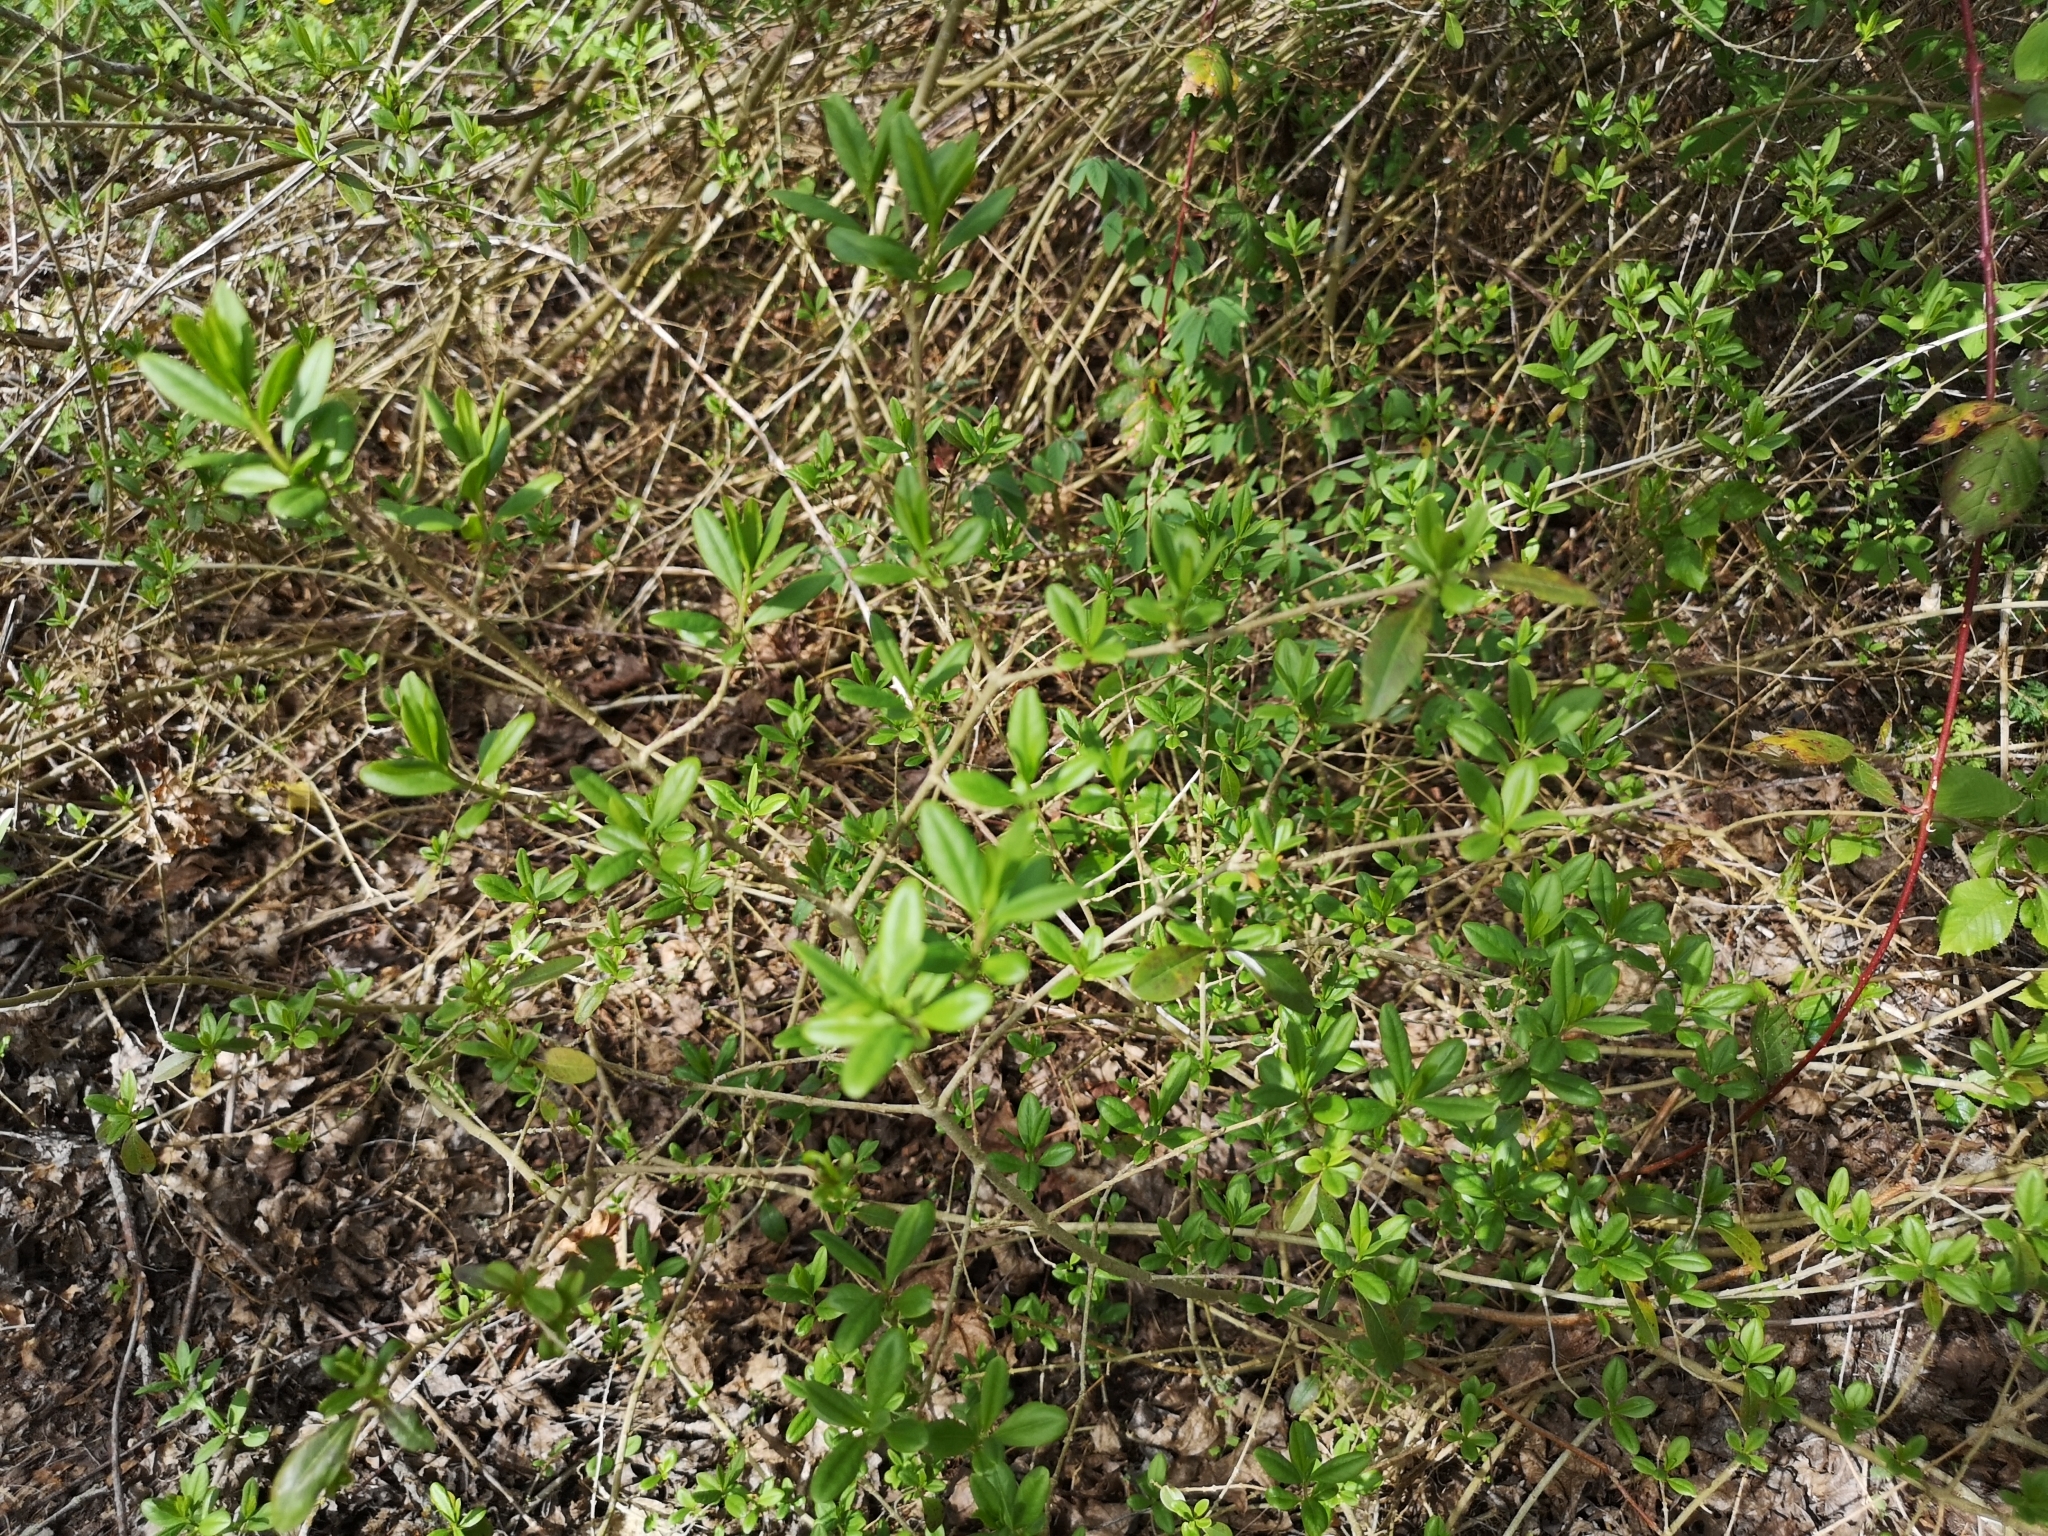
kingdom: Plantae
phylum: Tracheophyta
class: Magnoliopsida
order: Lamiales
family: Oleaceae
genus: Ligustrum
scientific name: Ligustrum vulgare
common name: Wild privet
